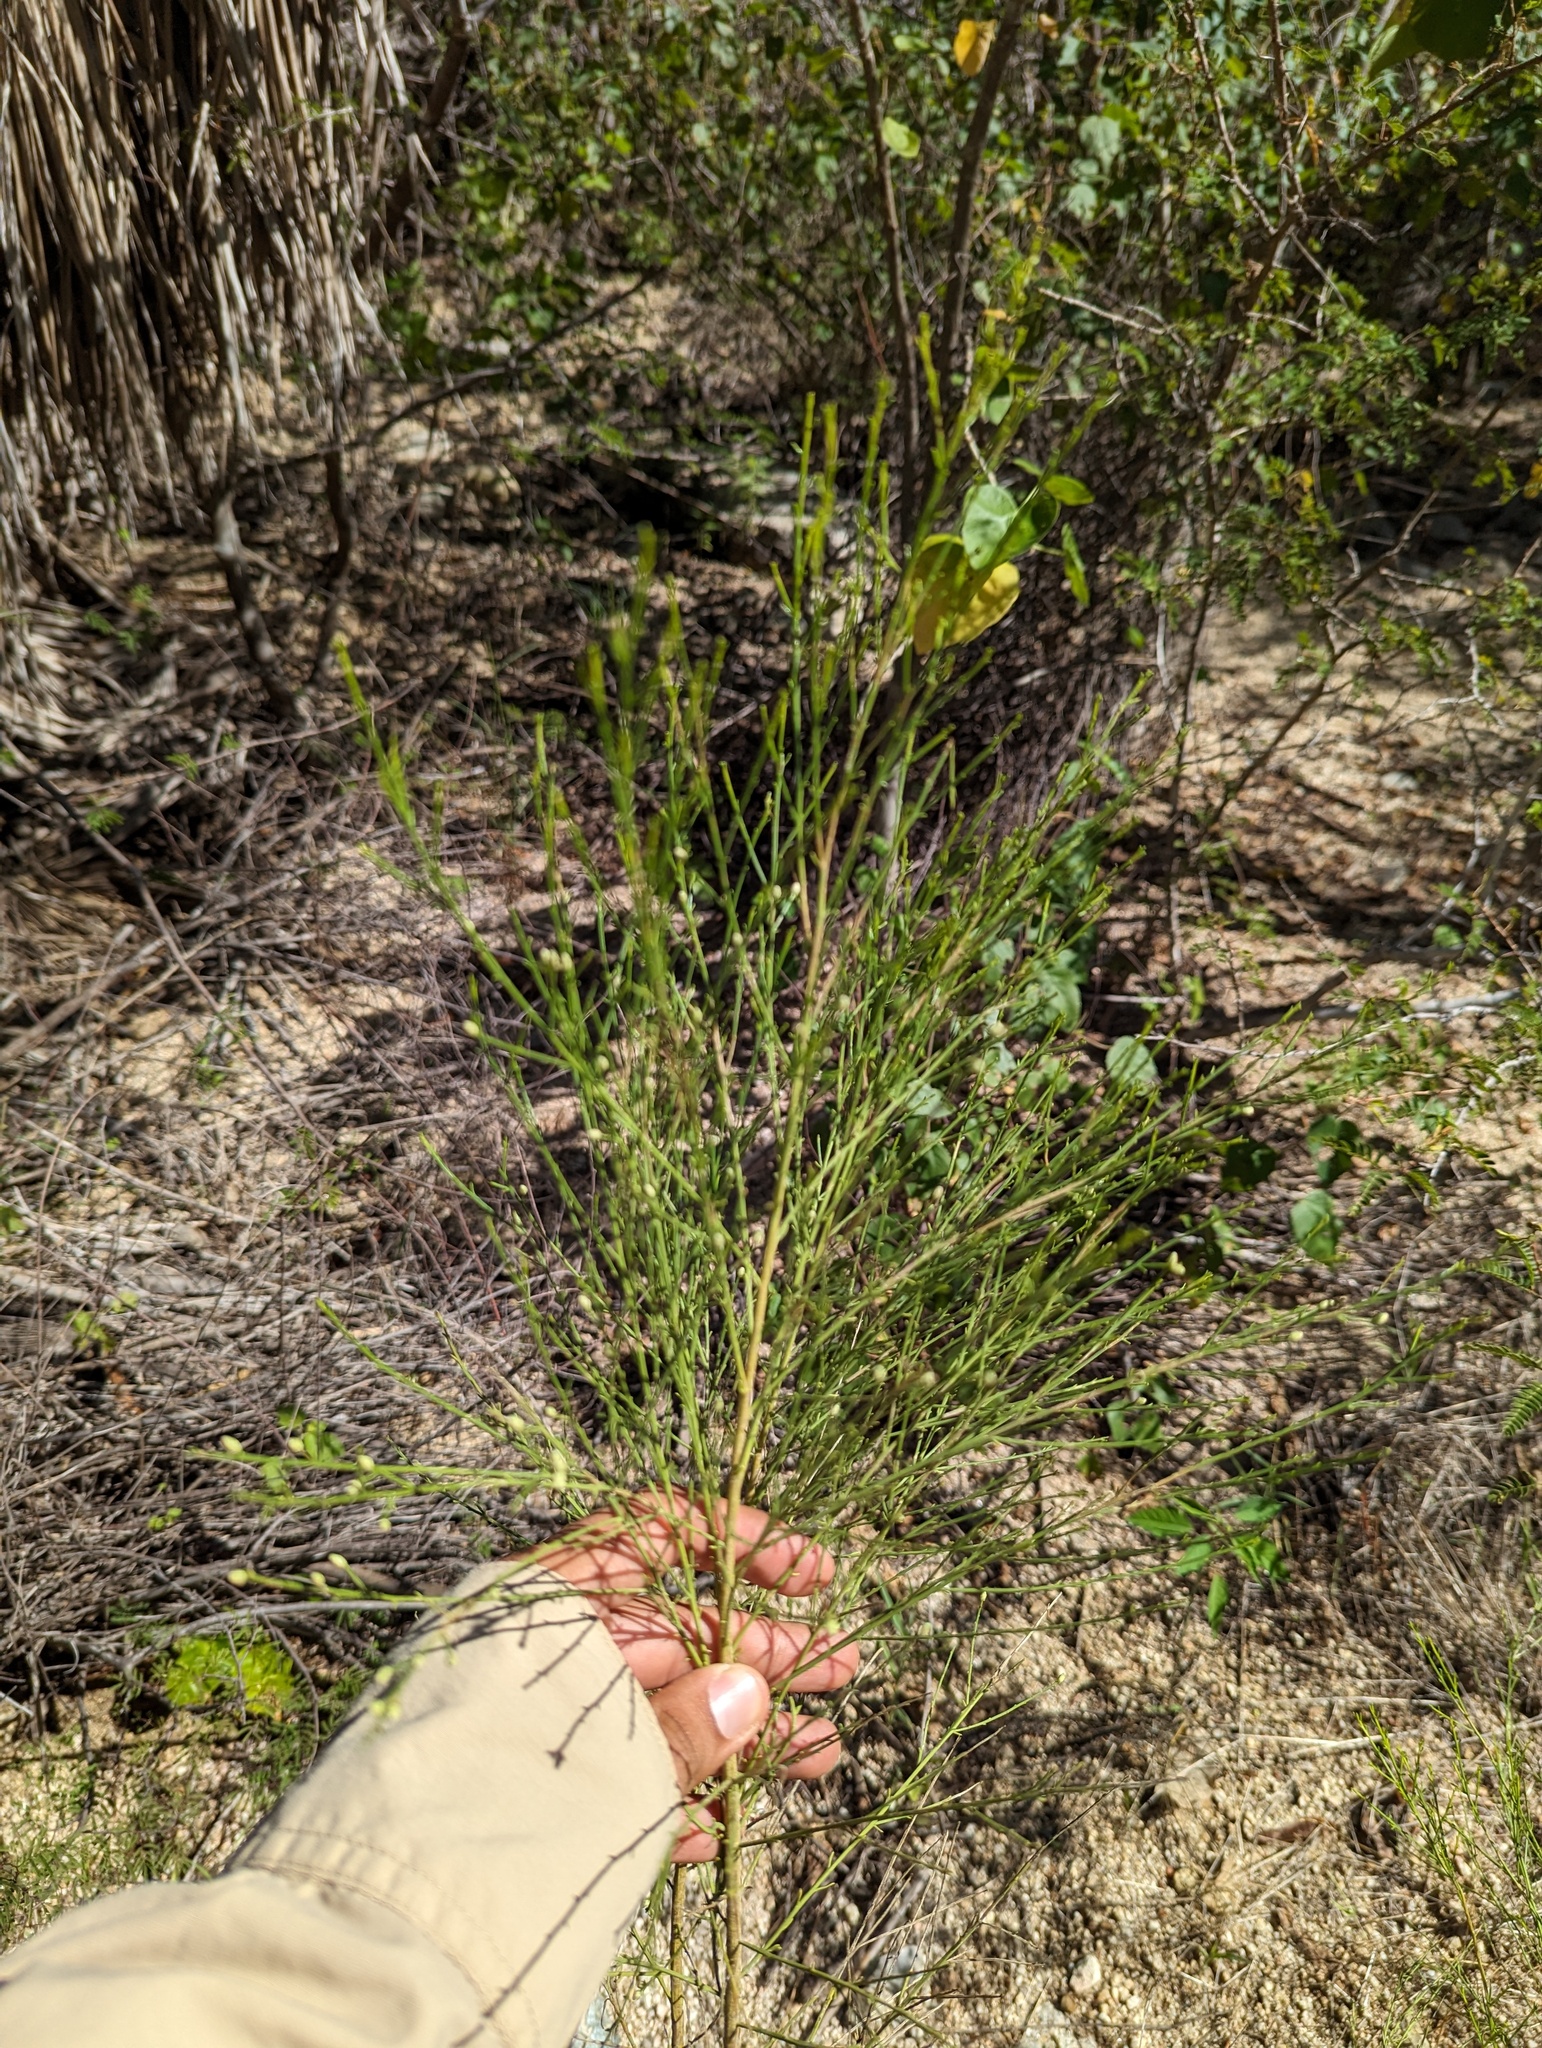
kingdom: Plantae
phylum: Tracheophyta
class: Magnoliopsida
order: Asterales
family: Asteraceae
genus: Baccharis
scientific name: Baccharis sarothroides
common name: Desert-broom
